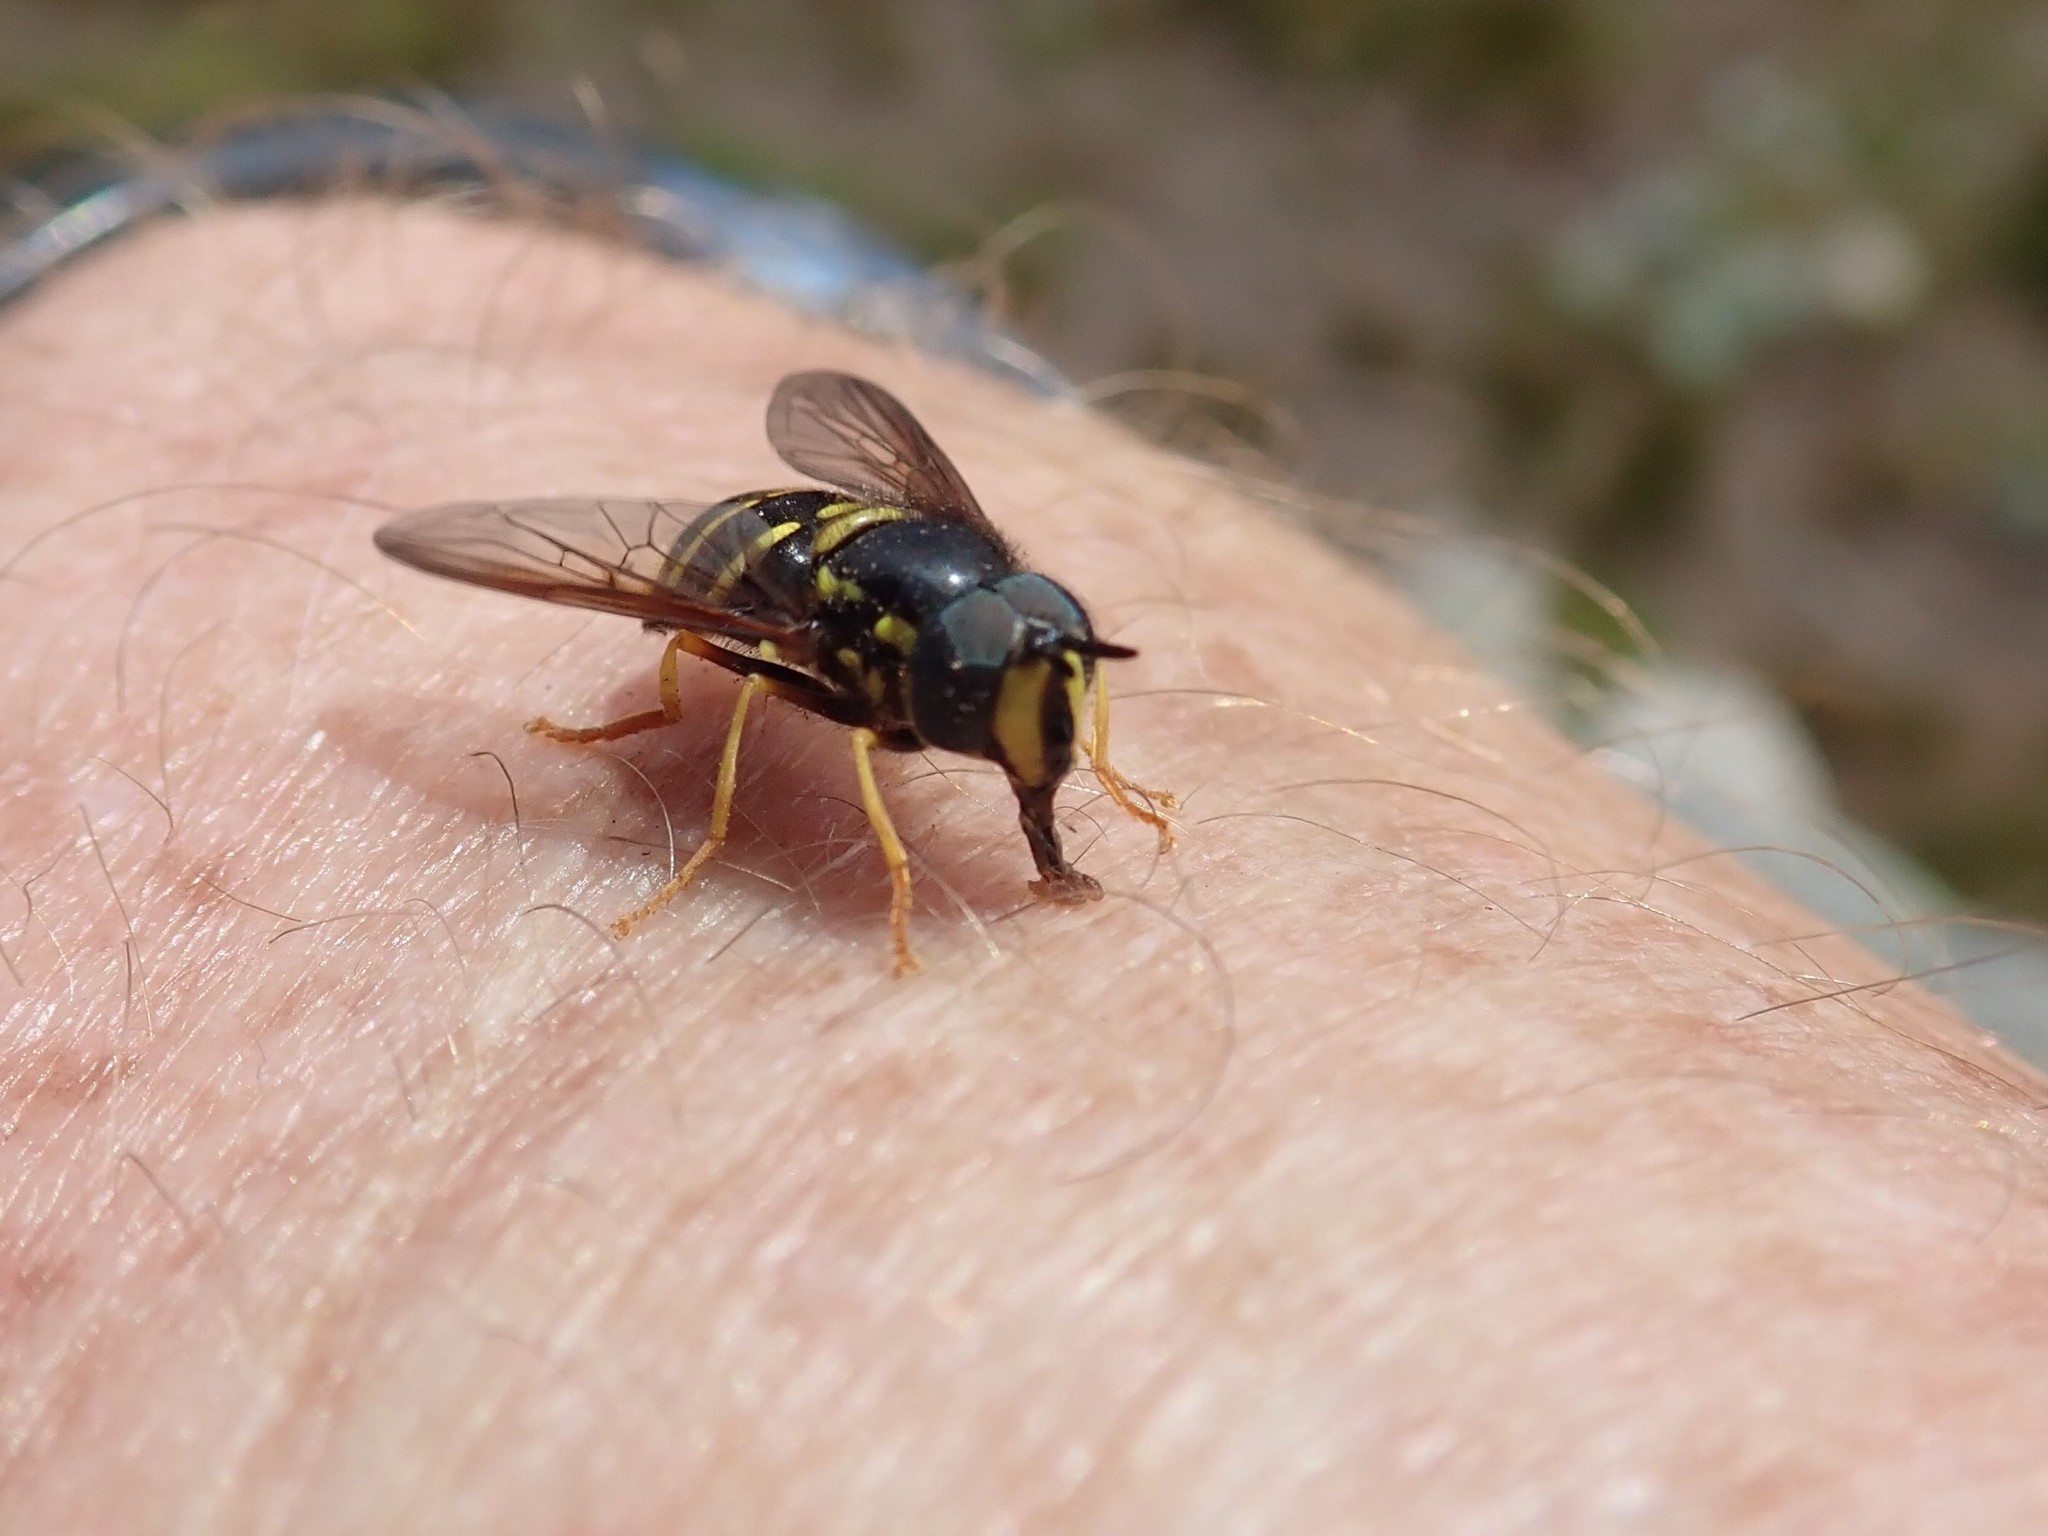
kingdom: Animalia
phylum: Arthropoda
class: Insecta
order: Diptera
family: Syrphidae
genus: Chrysotoxum
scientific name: Chrysotoxum
